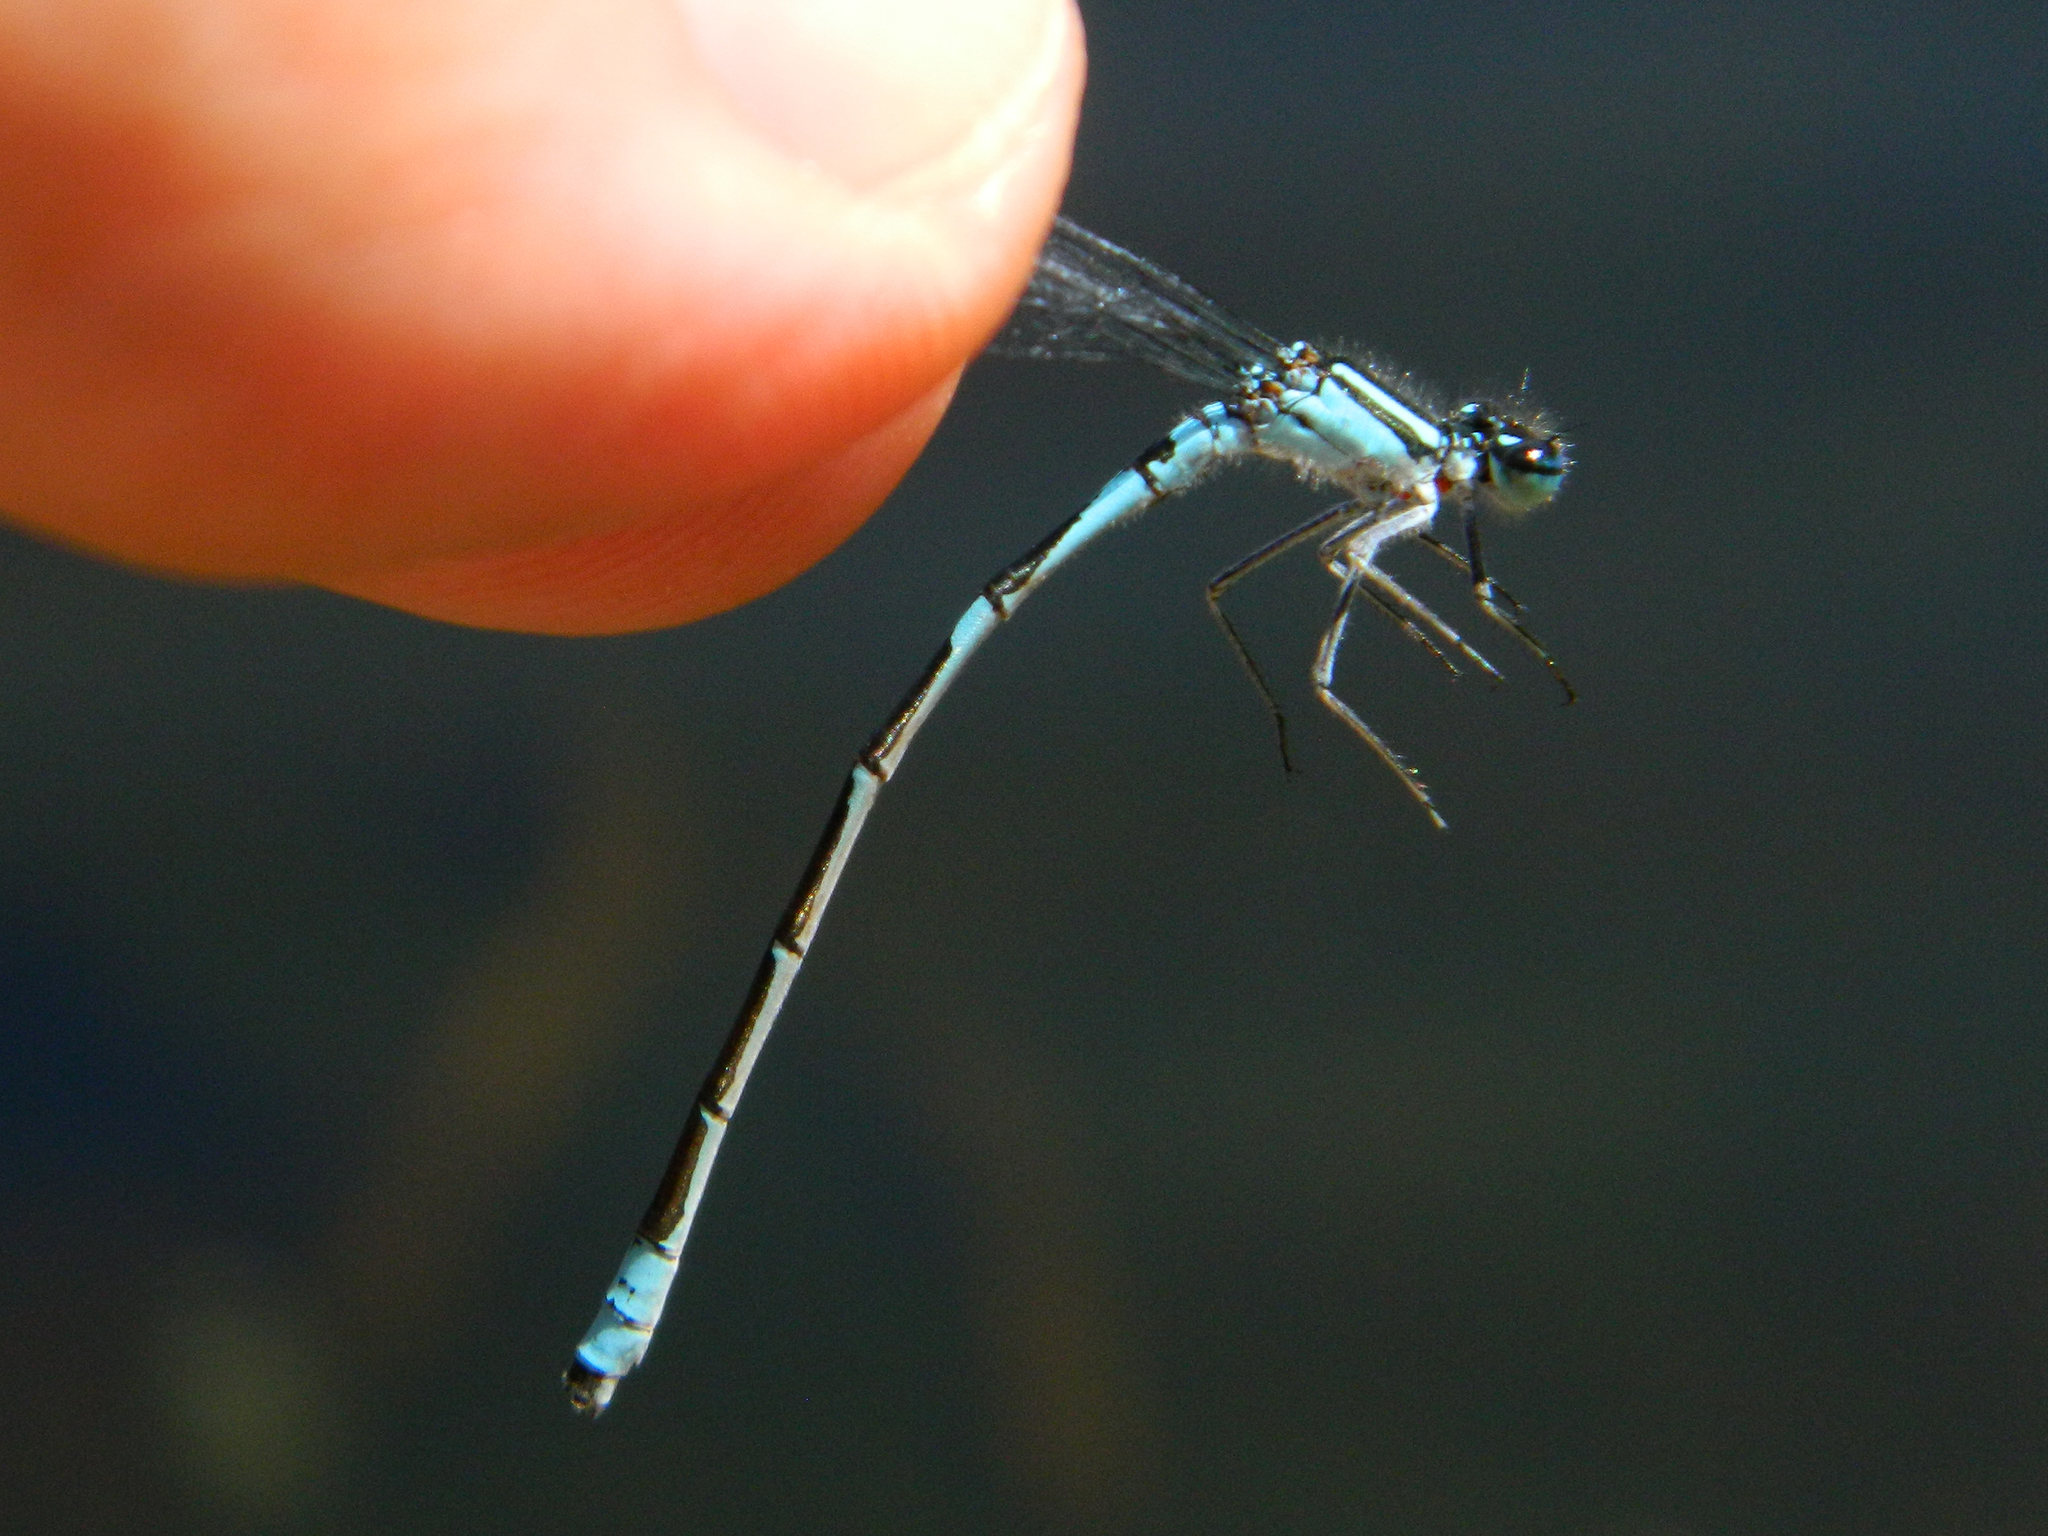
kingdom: Animalia
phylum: Arthropoda
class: Insecta
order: Odonata
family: Coenagrionidae
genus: Enallagma
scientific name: Enallagma ebrium
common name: Marsh bluet
